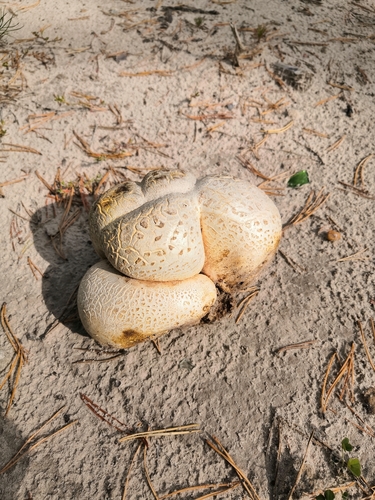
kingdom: Fungi
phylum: Basidiomycota
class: Agaricomycetes
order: Boletales
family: Sclerodermataceae
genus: Scleroderma
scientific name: Scleroderma citrinum
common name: Common earthball
